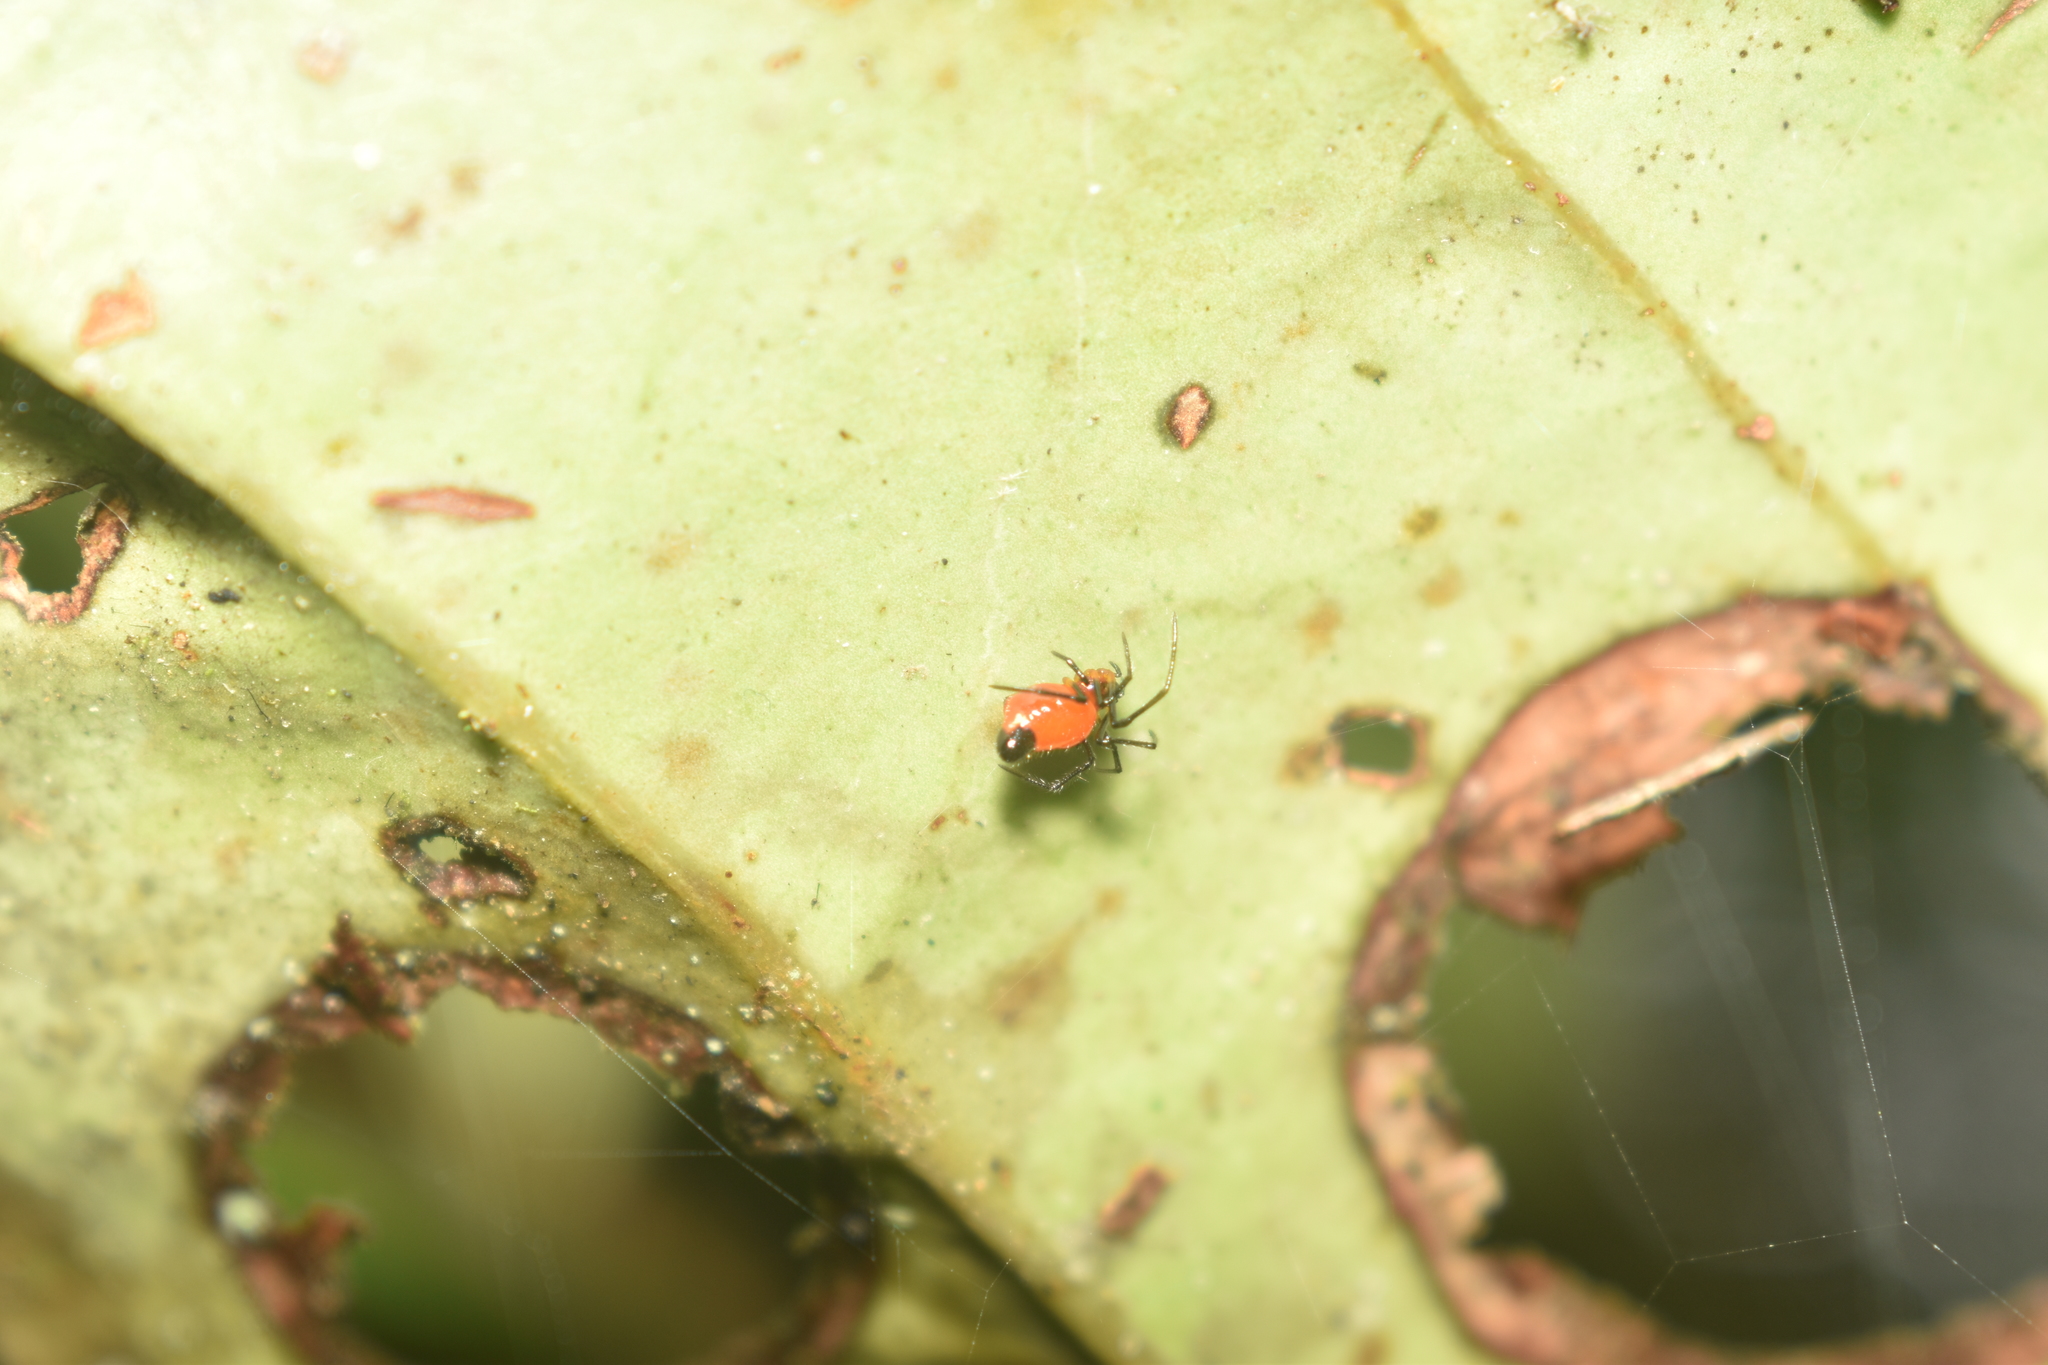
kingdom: Animalia
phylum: Arthropoda
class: Arachnida
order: Araneae
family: Theridiidae
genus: Chrysso
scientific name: Chrysso nigriceps
